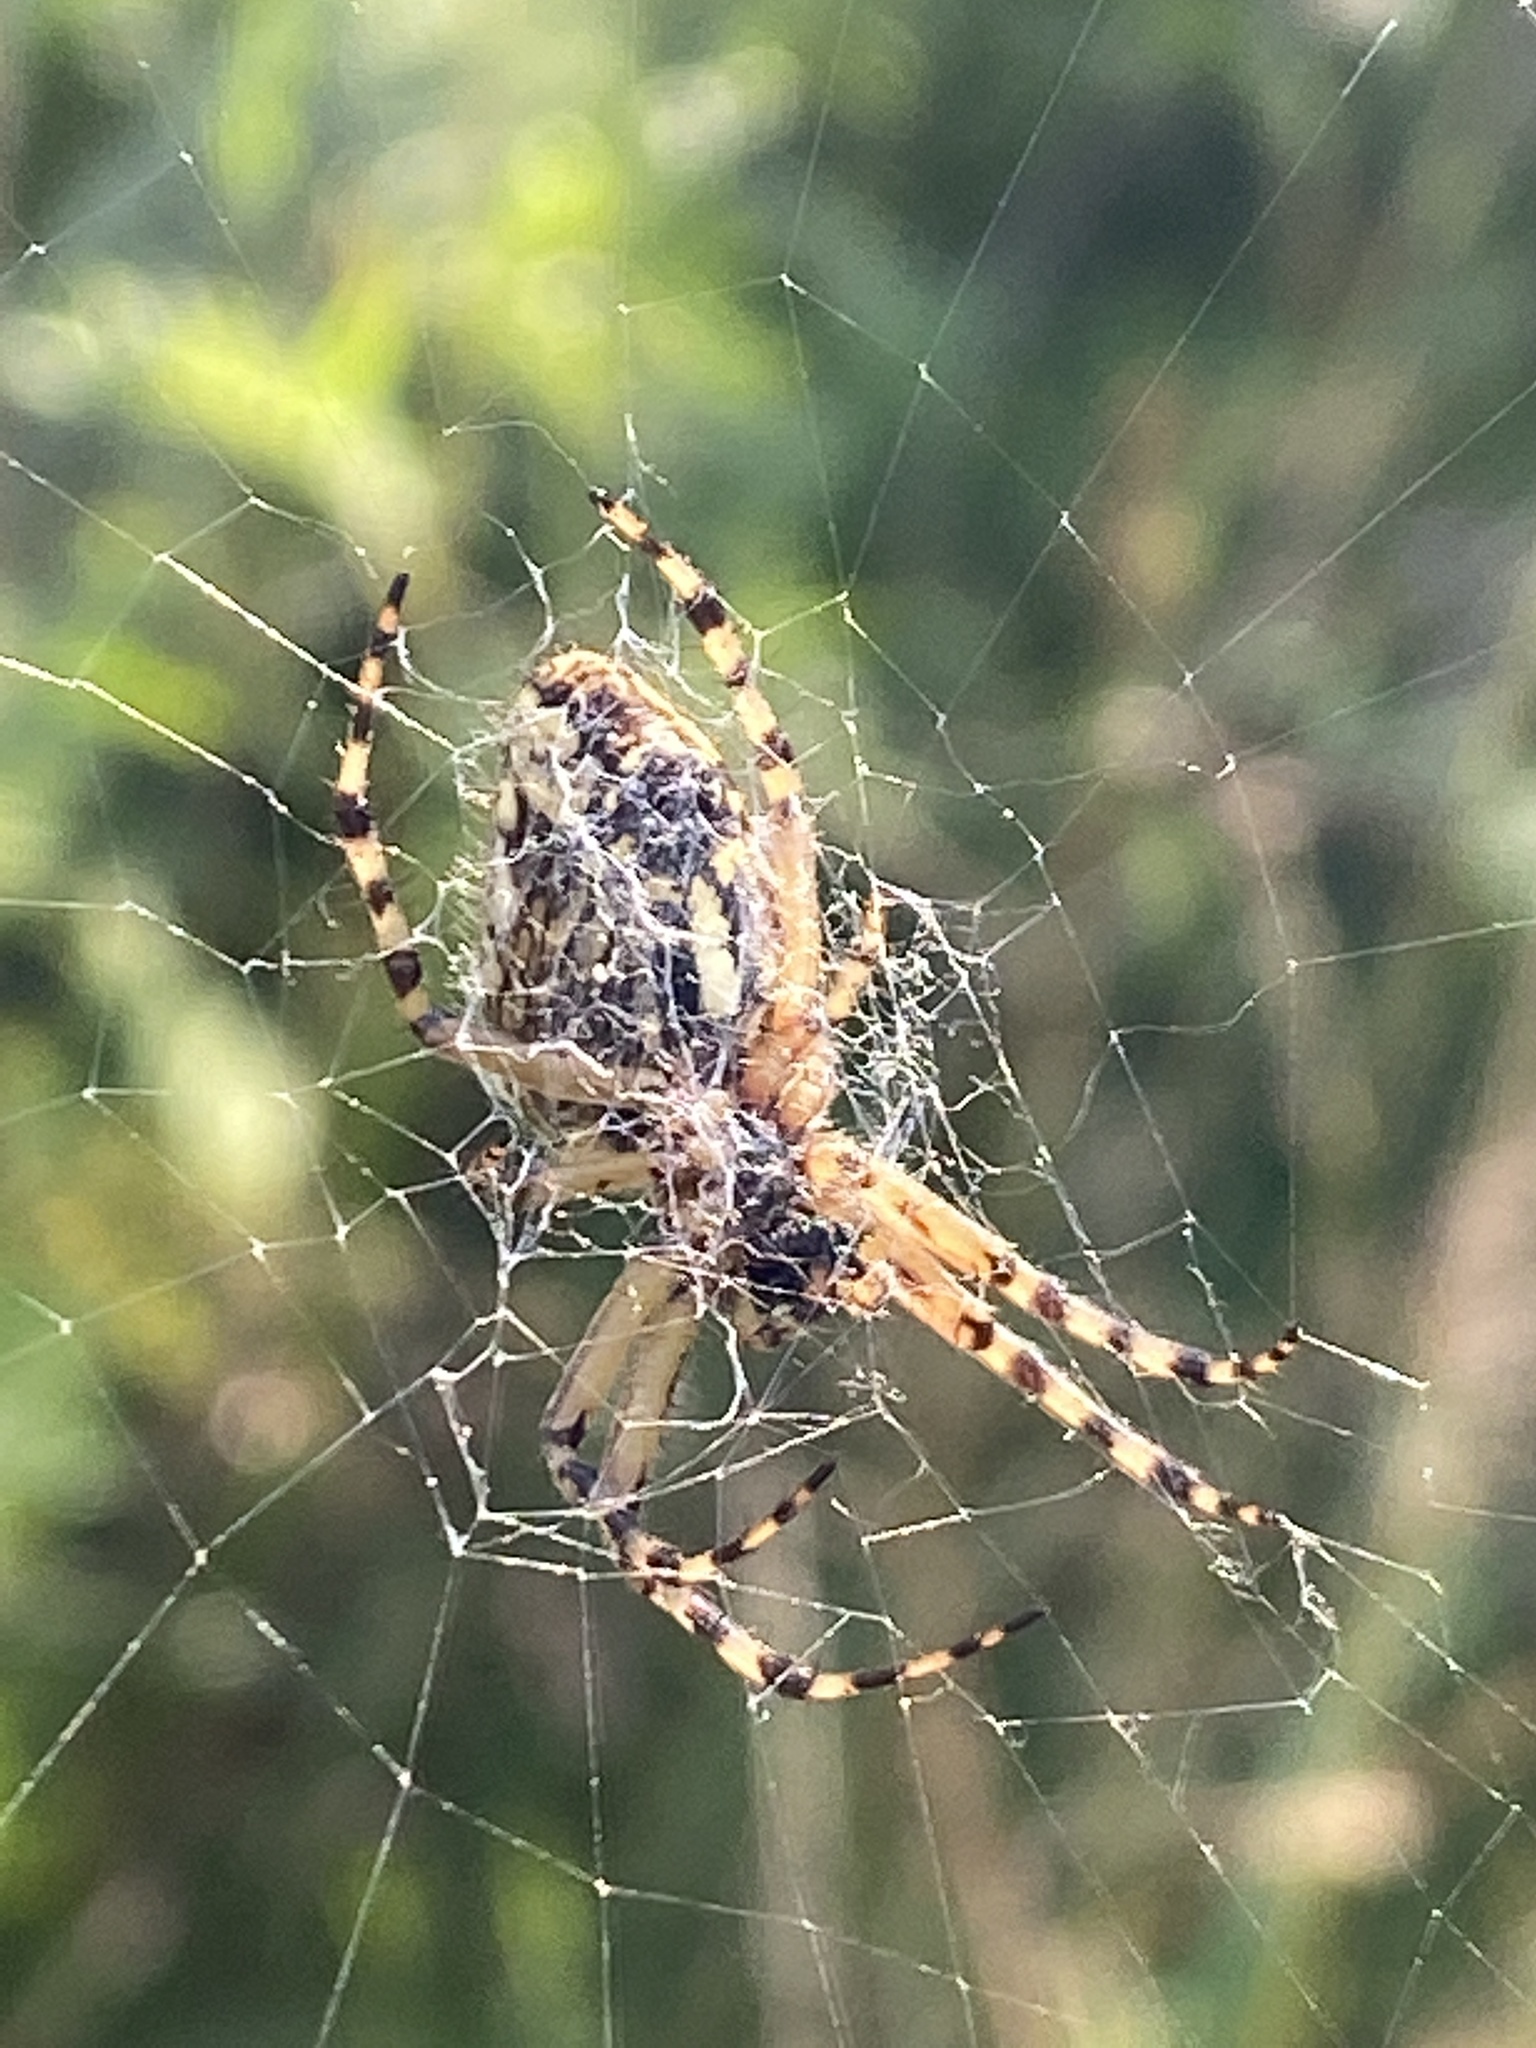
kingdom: Animalia
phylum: Arthropoda
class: Arachnida
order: Araneae
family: Araneidae
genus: Aculepeira
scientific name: Aculepeira ceropegia
